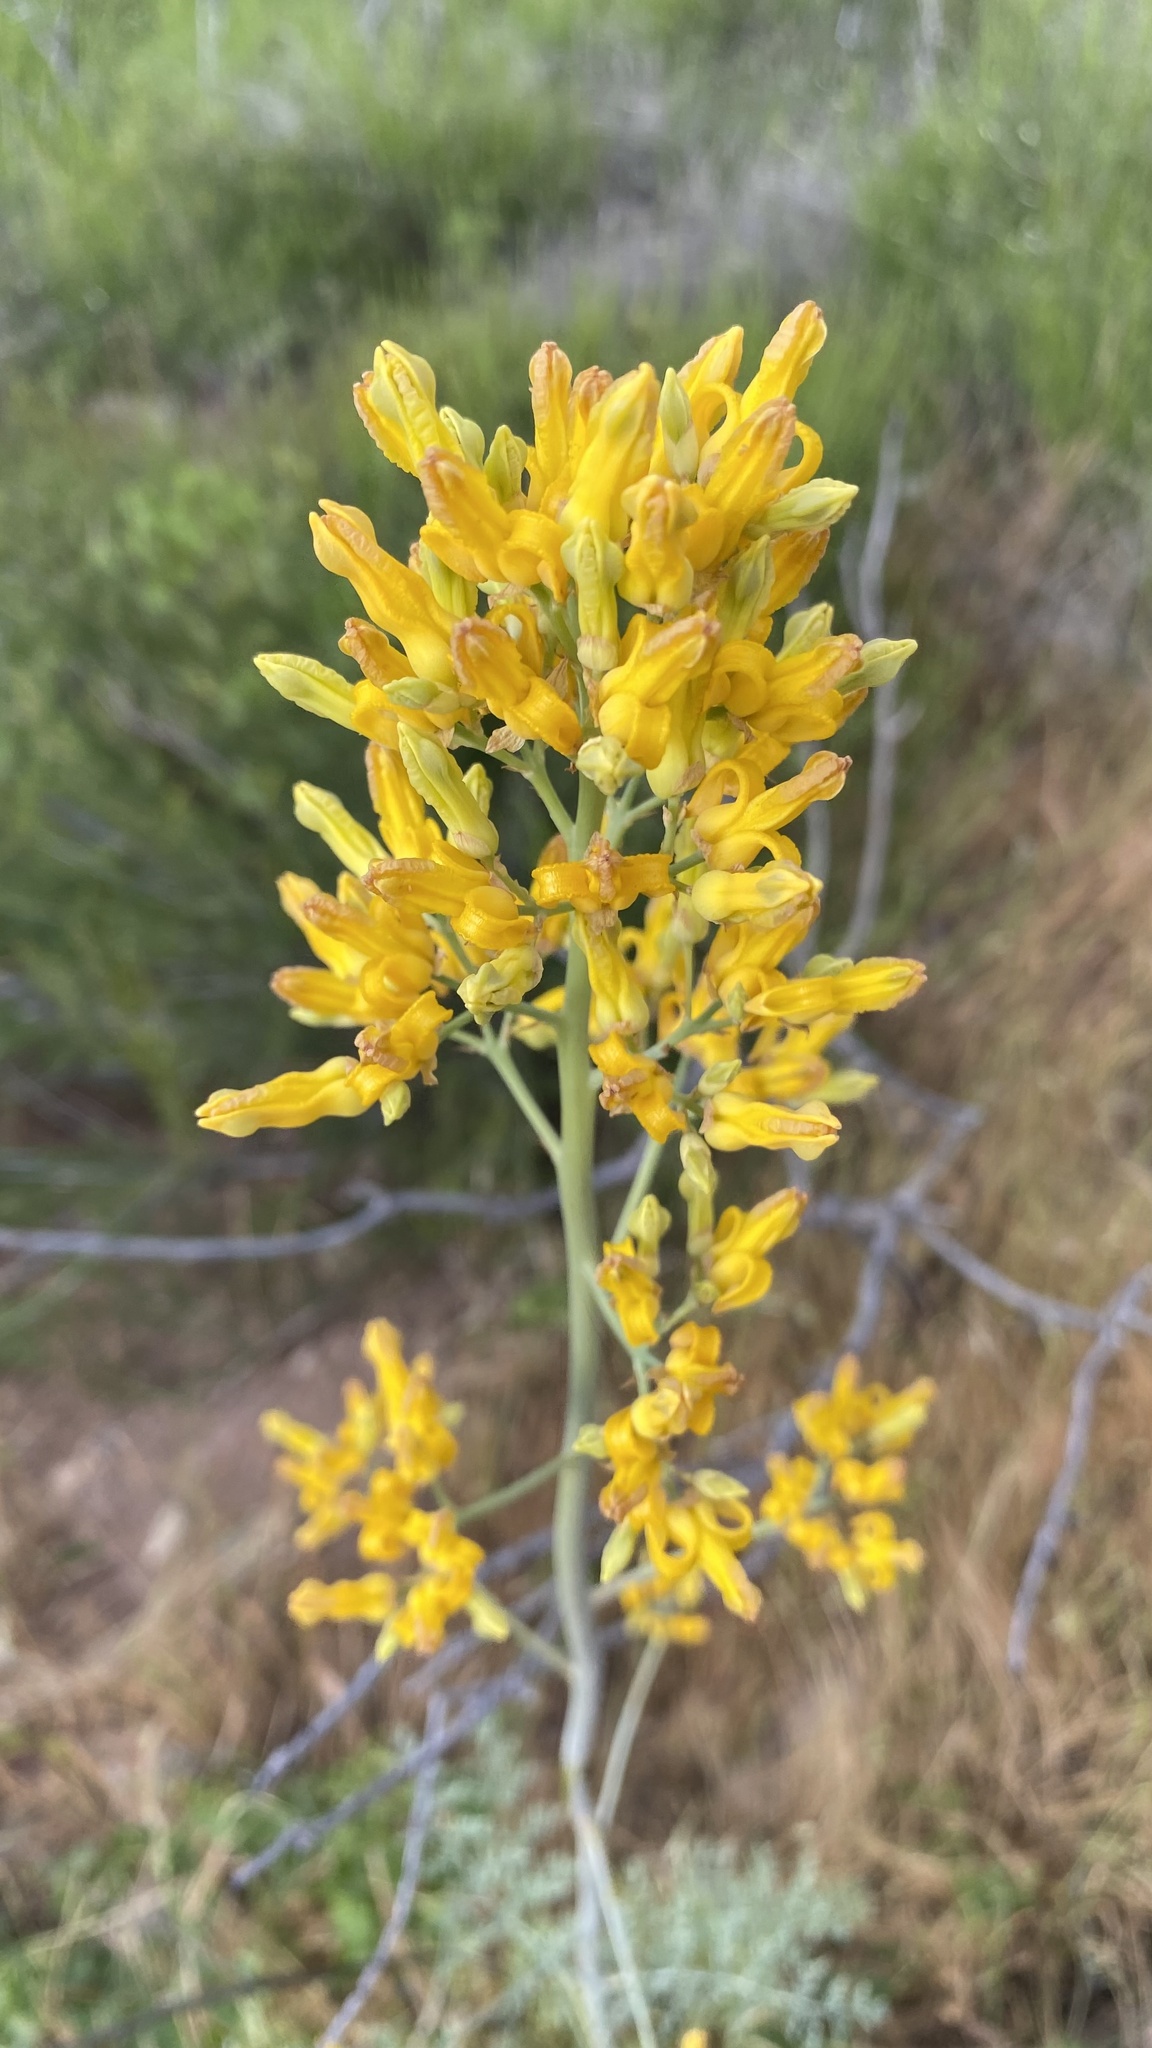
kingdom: Plantae
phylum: Tracheophyta
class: Magnoliopsida
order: Ranunculales
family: Papaveraceae
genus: Ehrendorferia
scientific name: Ehrendorferia chrysantha
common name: Golden eardrops
